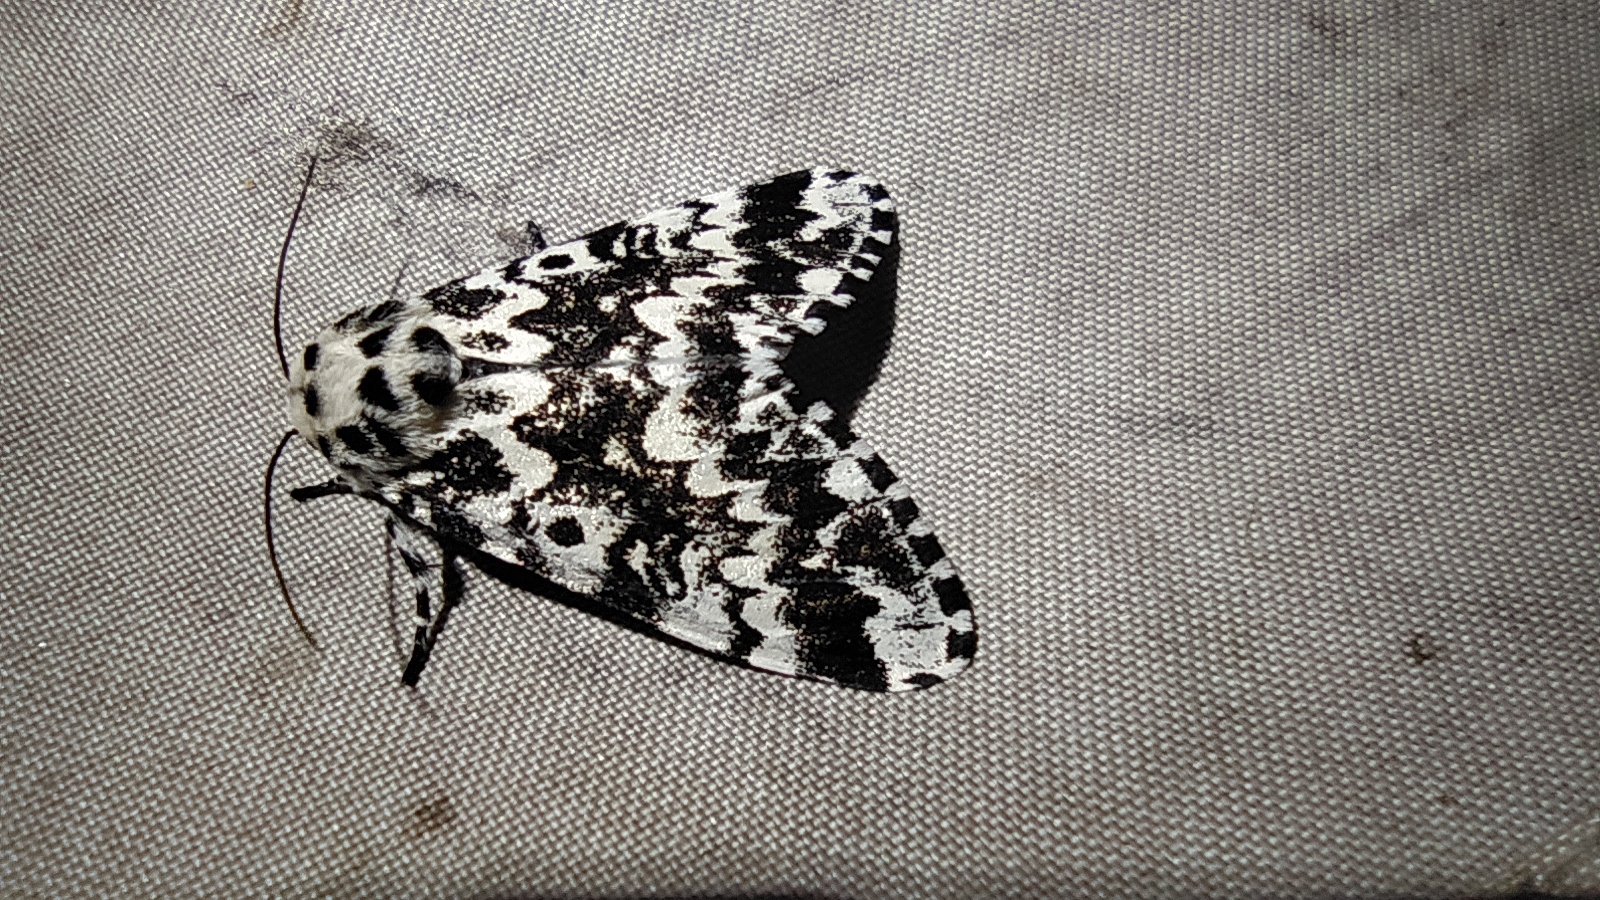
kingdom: Animalia
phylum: Arthropoda
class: Insecta
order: Lepidoptera
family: Noctuidae
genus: Panthea
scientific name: Panthea coenobita
